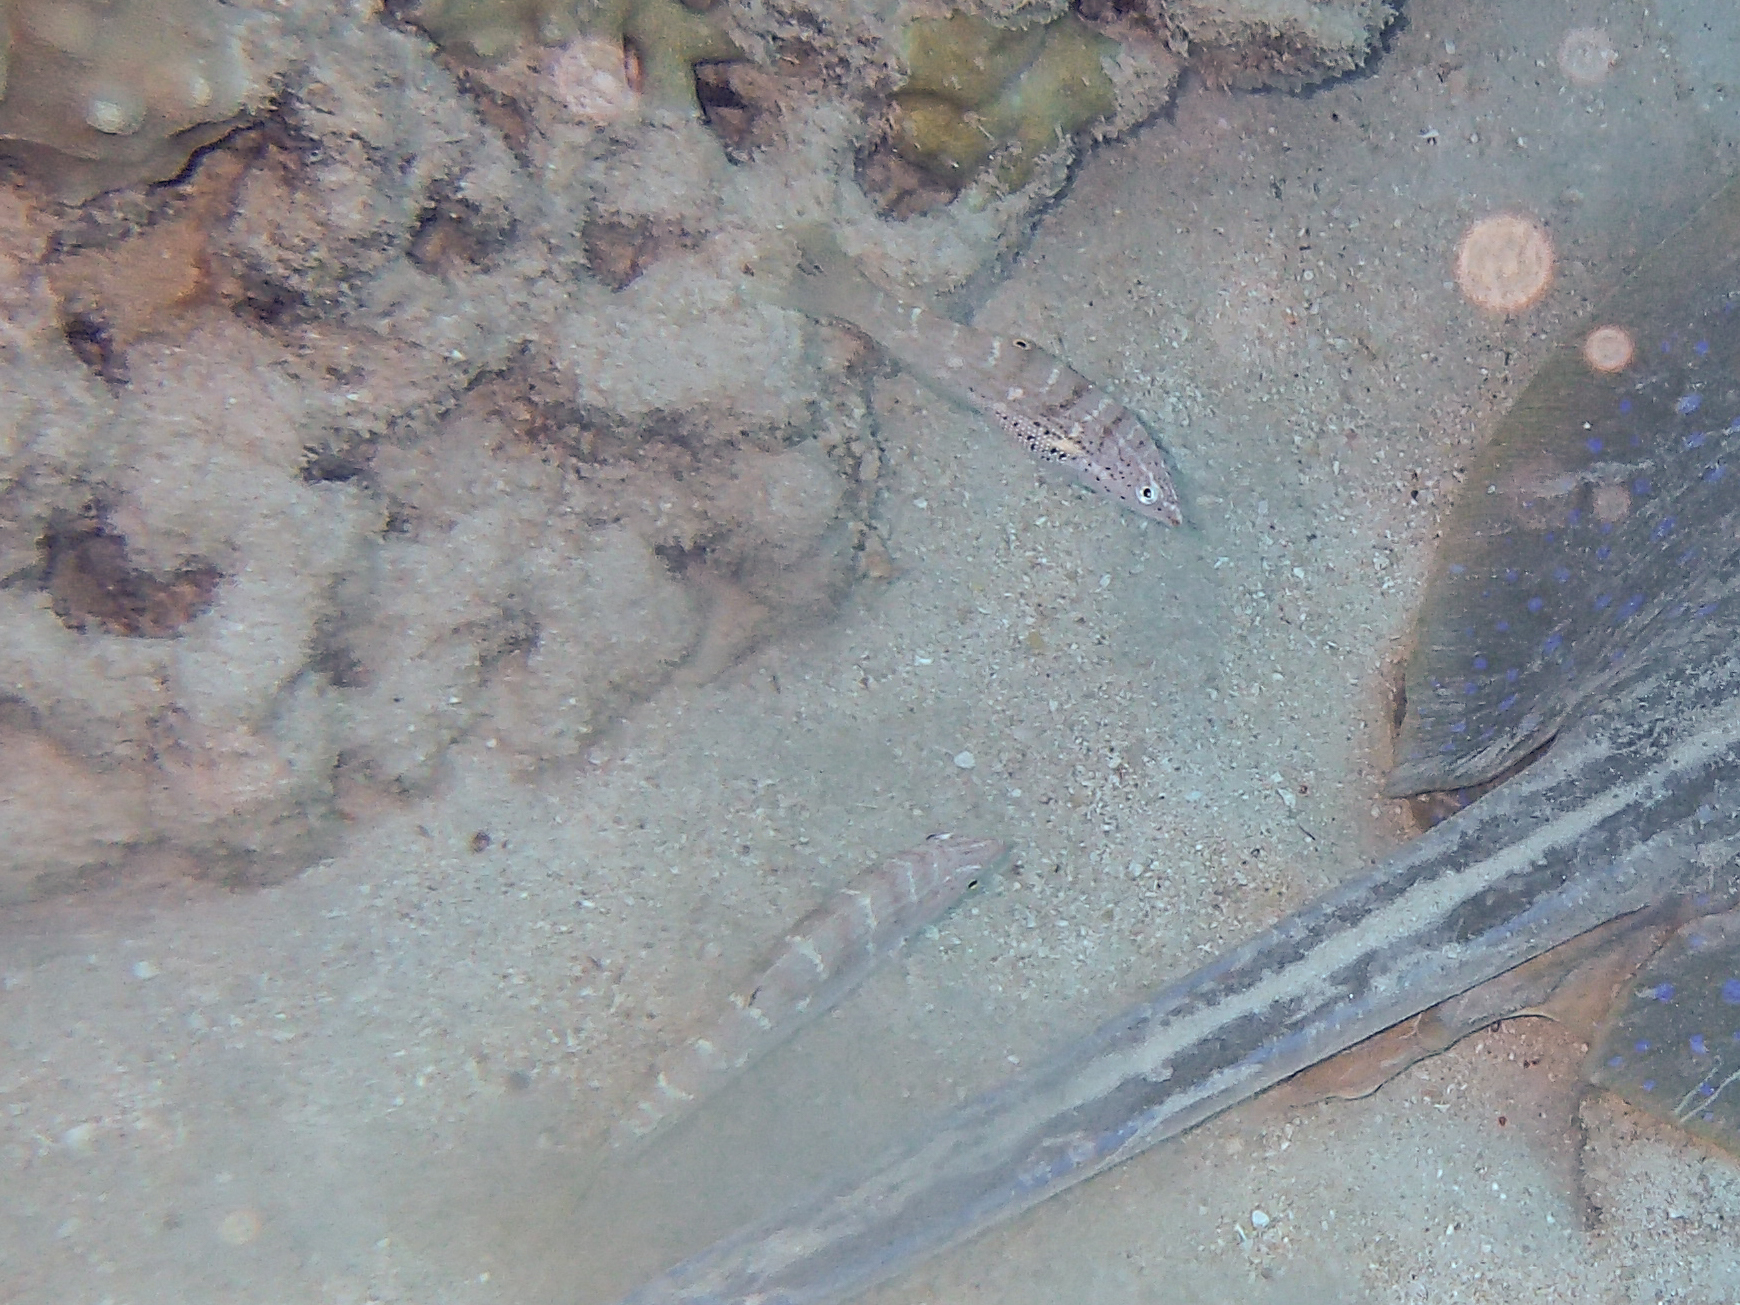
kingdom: Animalia
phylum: Chordata
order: Perciformes
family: Labridae
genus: Coris
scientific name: Coris batuensis
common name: Batu coris
